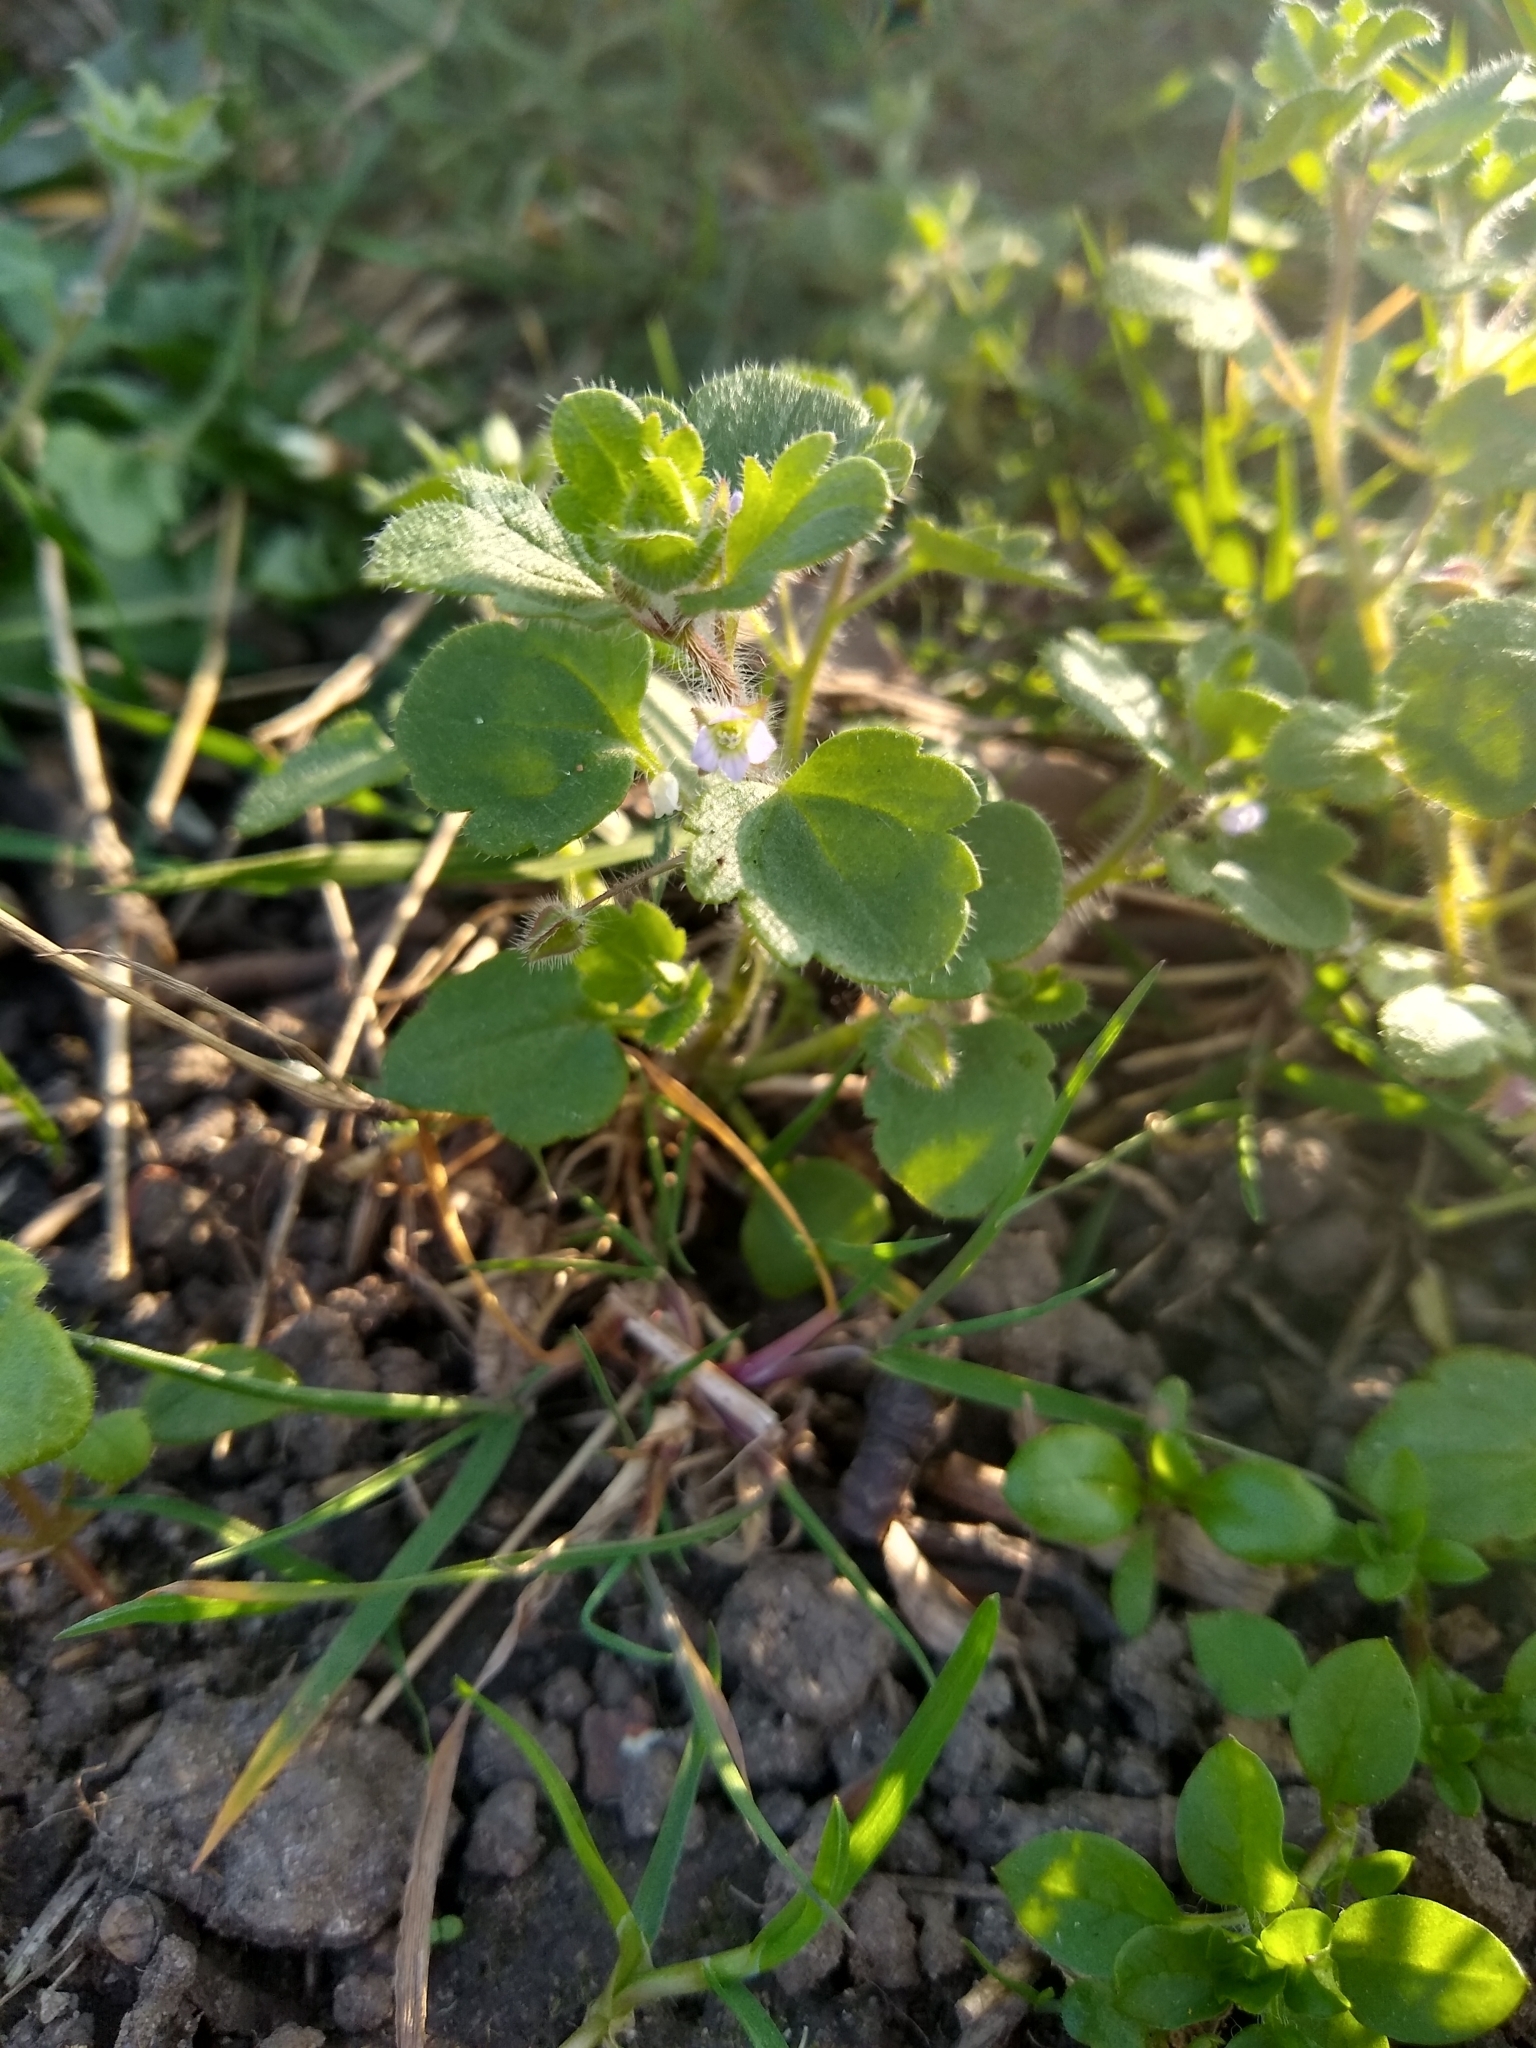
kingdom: Plantae
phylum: Tracheophyta
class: Magnoliopsida
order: Lamiales
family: Plantaginaceae
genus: Veronica
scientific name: Veronica sublobata
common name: False ivy-leaved speedwell
